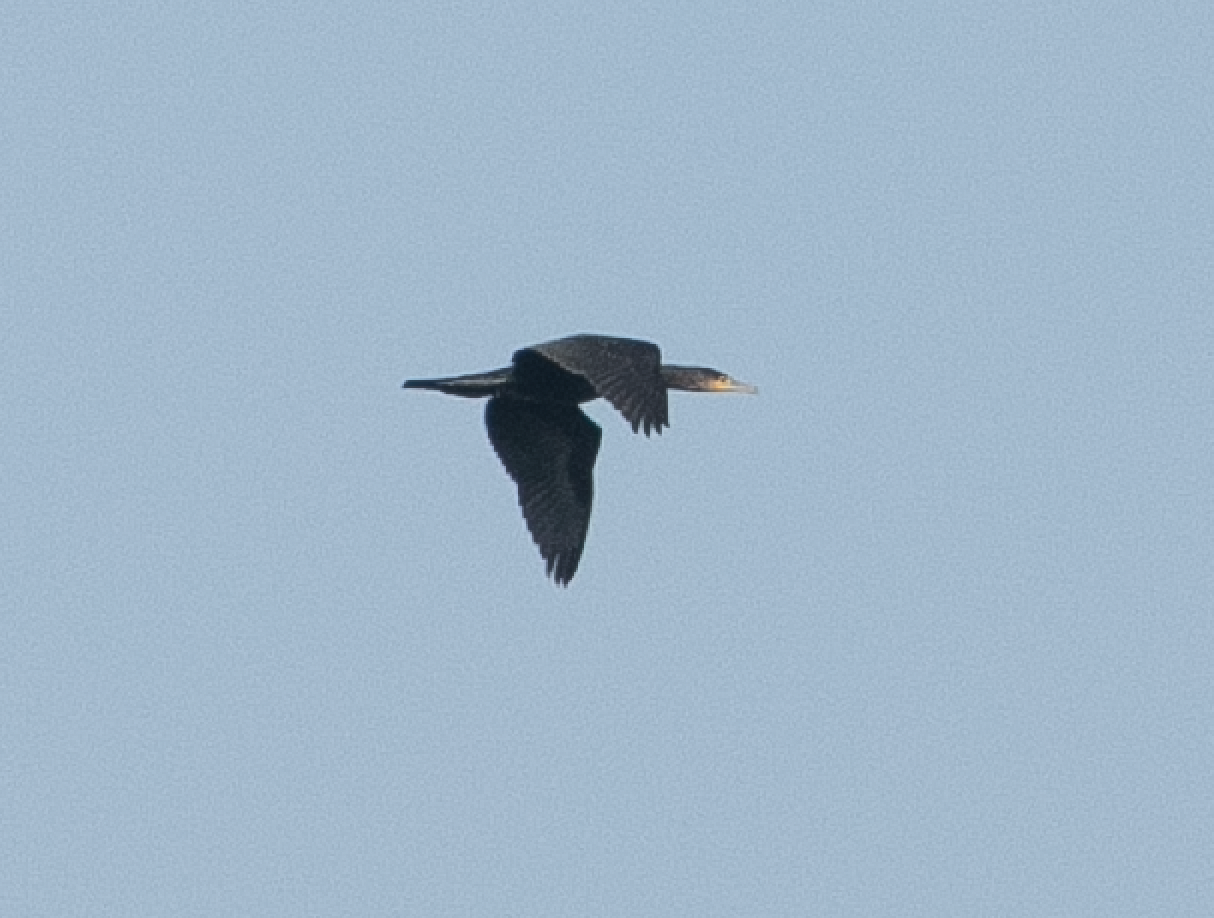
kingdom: Animalia
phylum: Chordata
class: Aves
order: Suliformes
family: Phalacrocoracidae
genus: Phalacrocorax
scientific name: Phalacrocorax carbo
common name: Great cormorant
